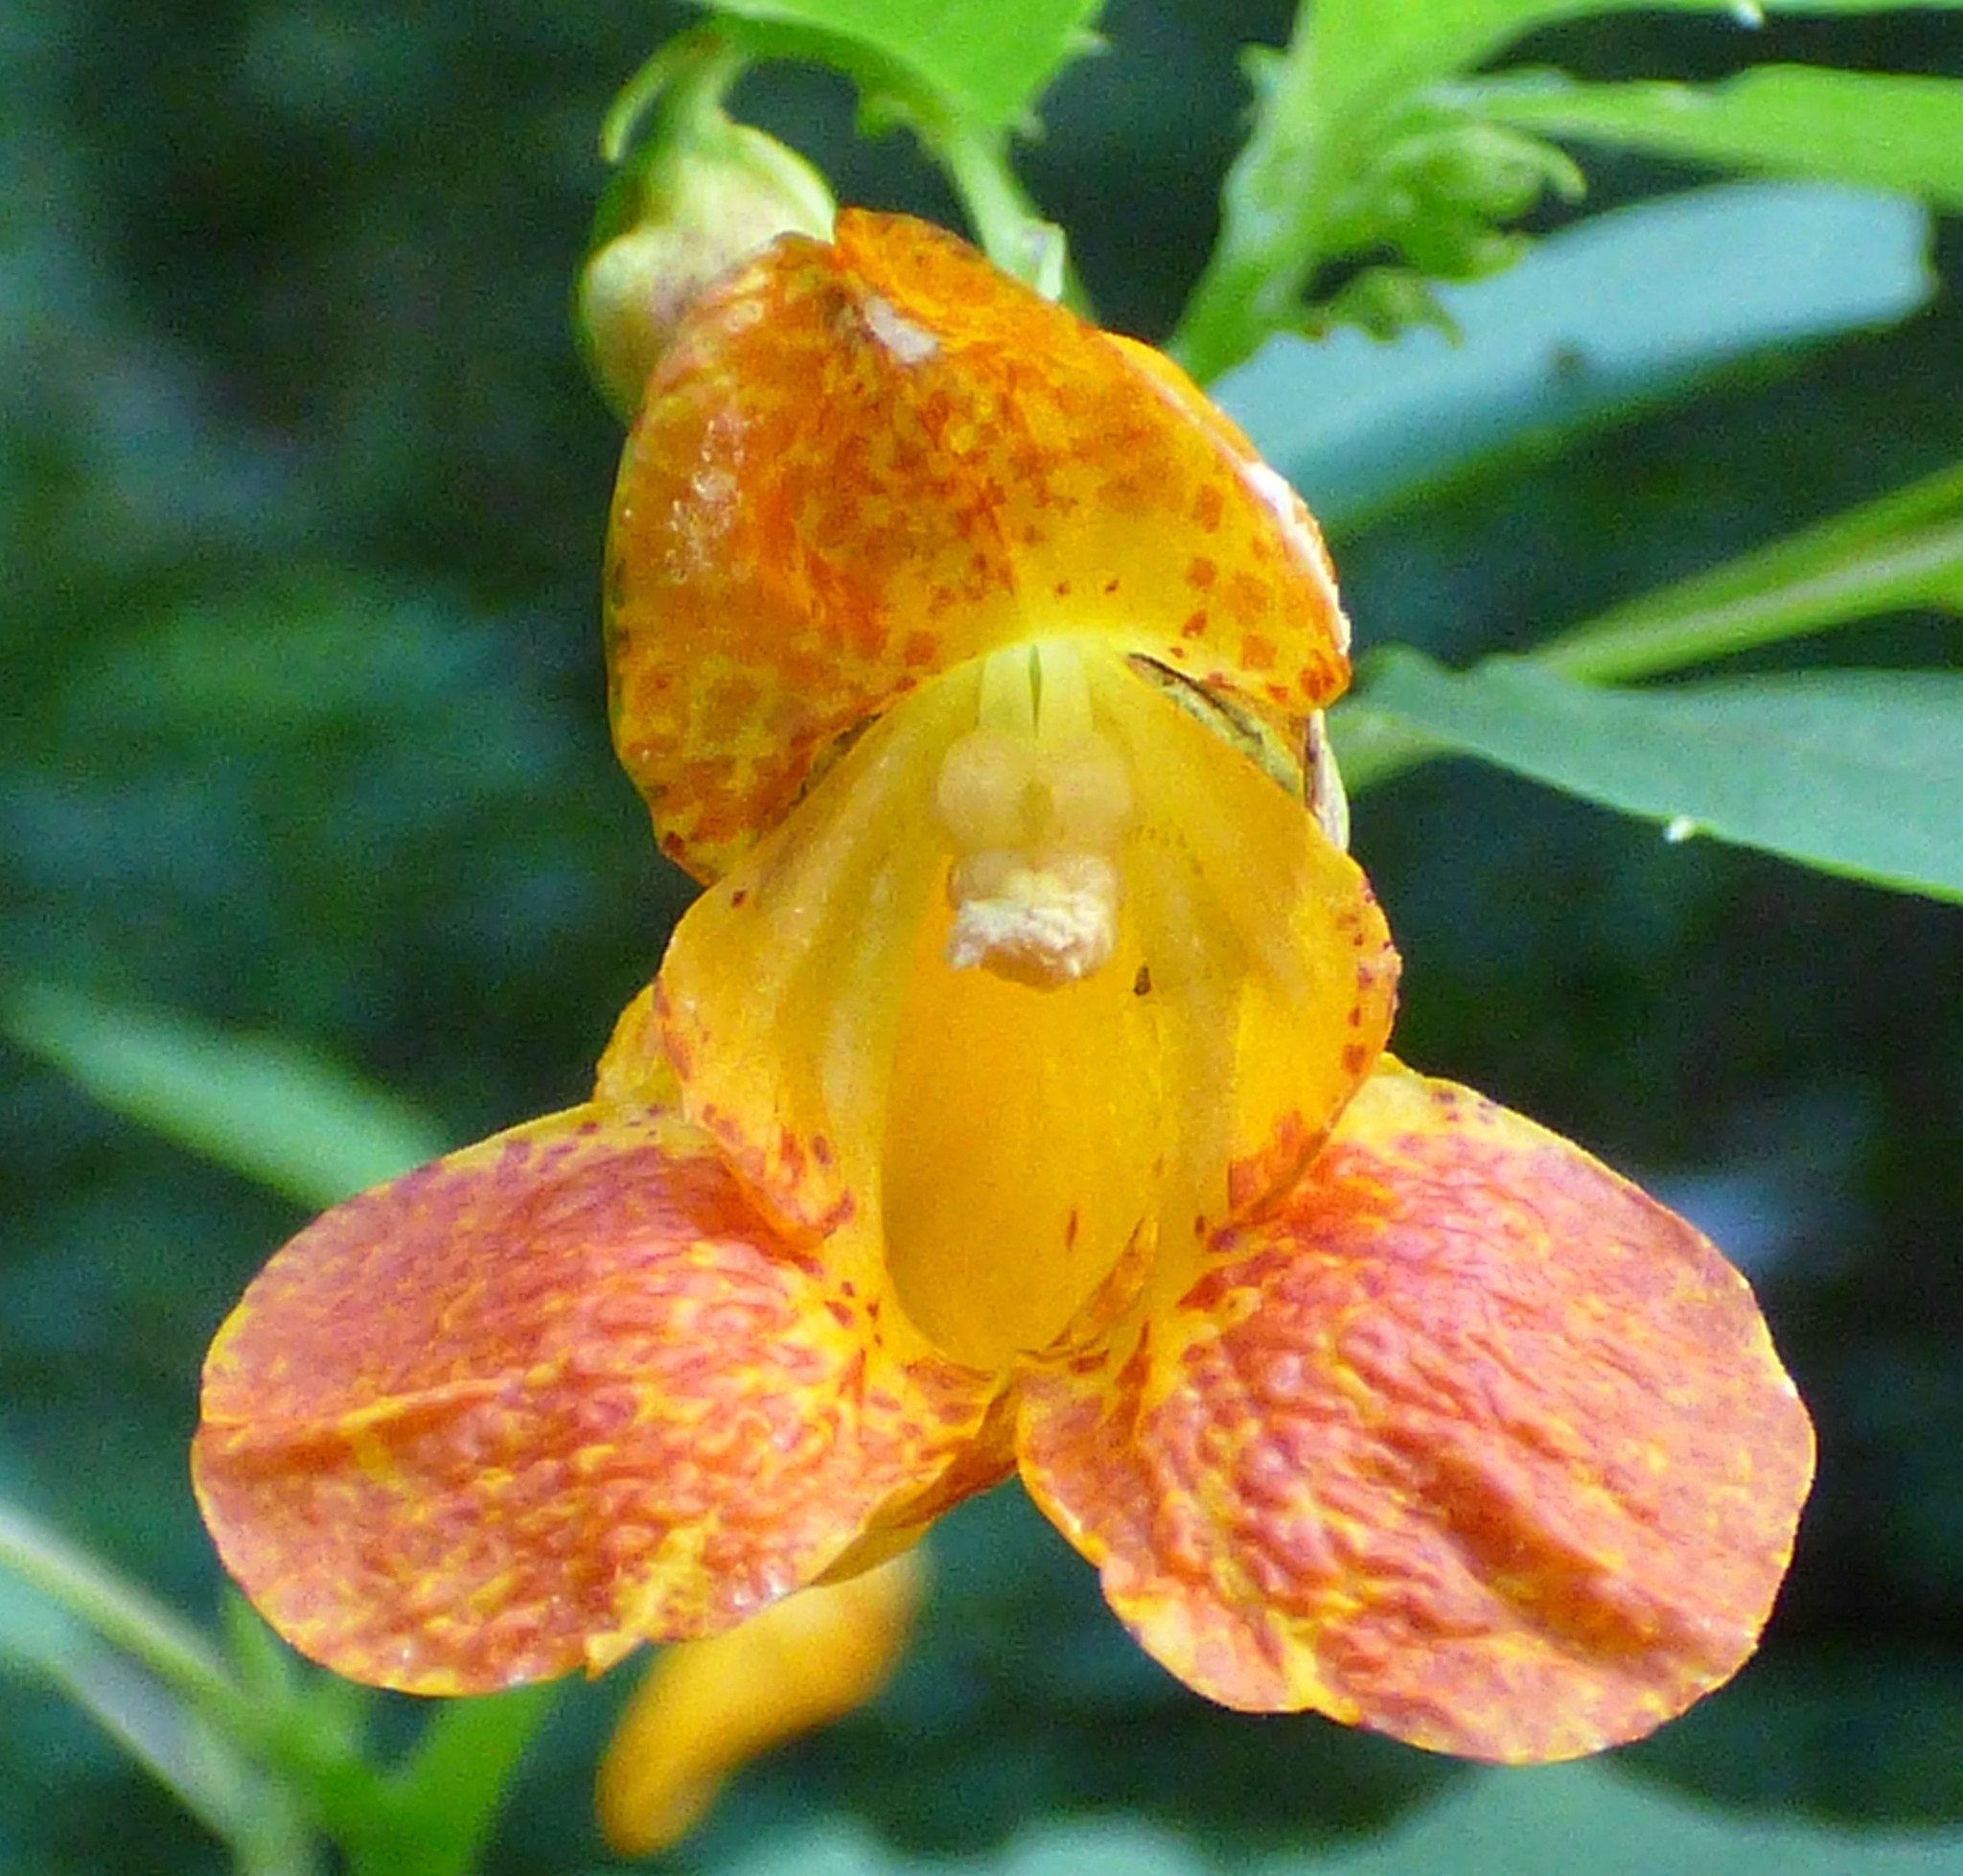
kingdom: Plantae
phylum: Tracheophyta
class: Magnoliopsida
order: Ericales
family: Balsaminaceae
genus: Impatiens
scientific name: Impatiens capensis
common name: Orange balsam
